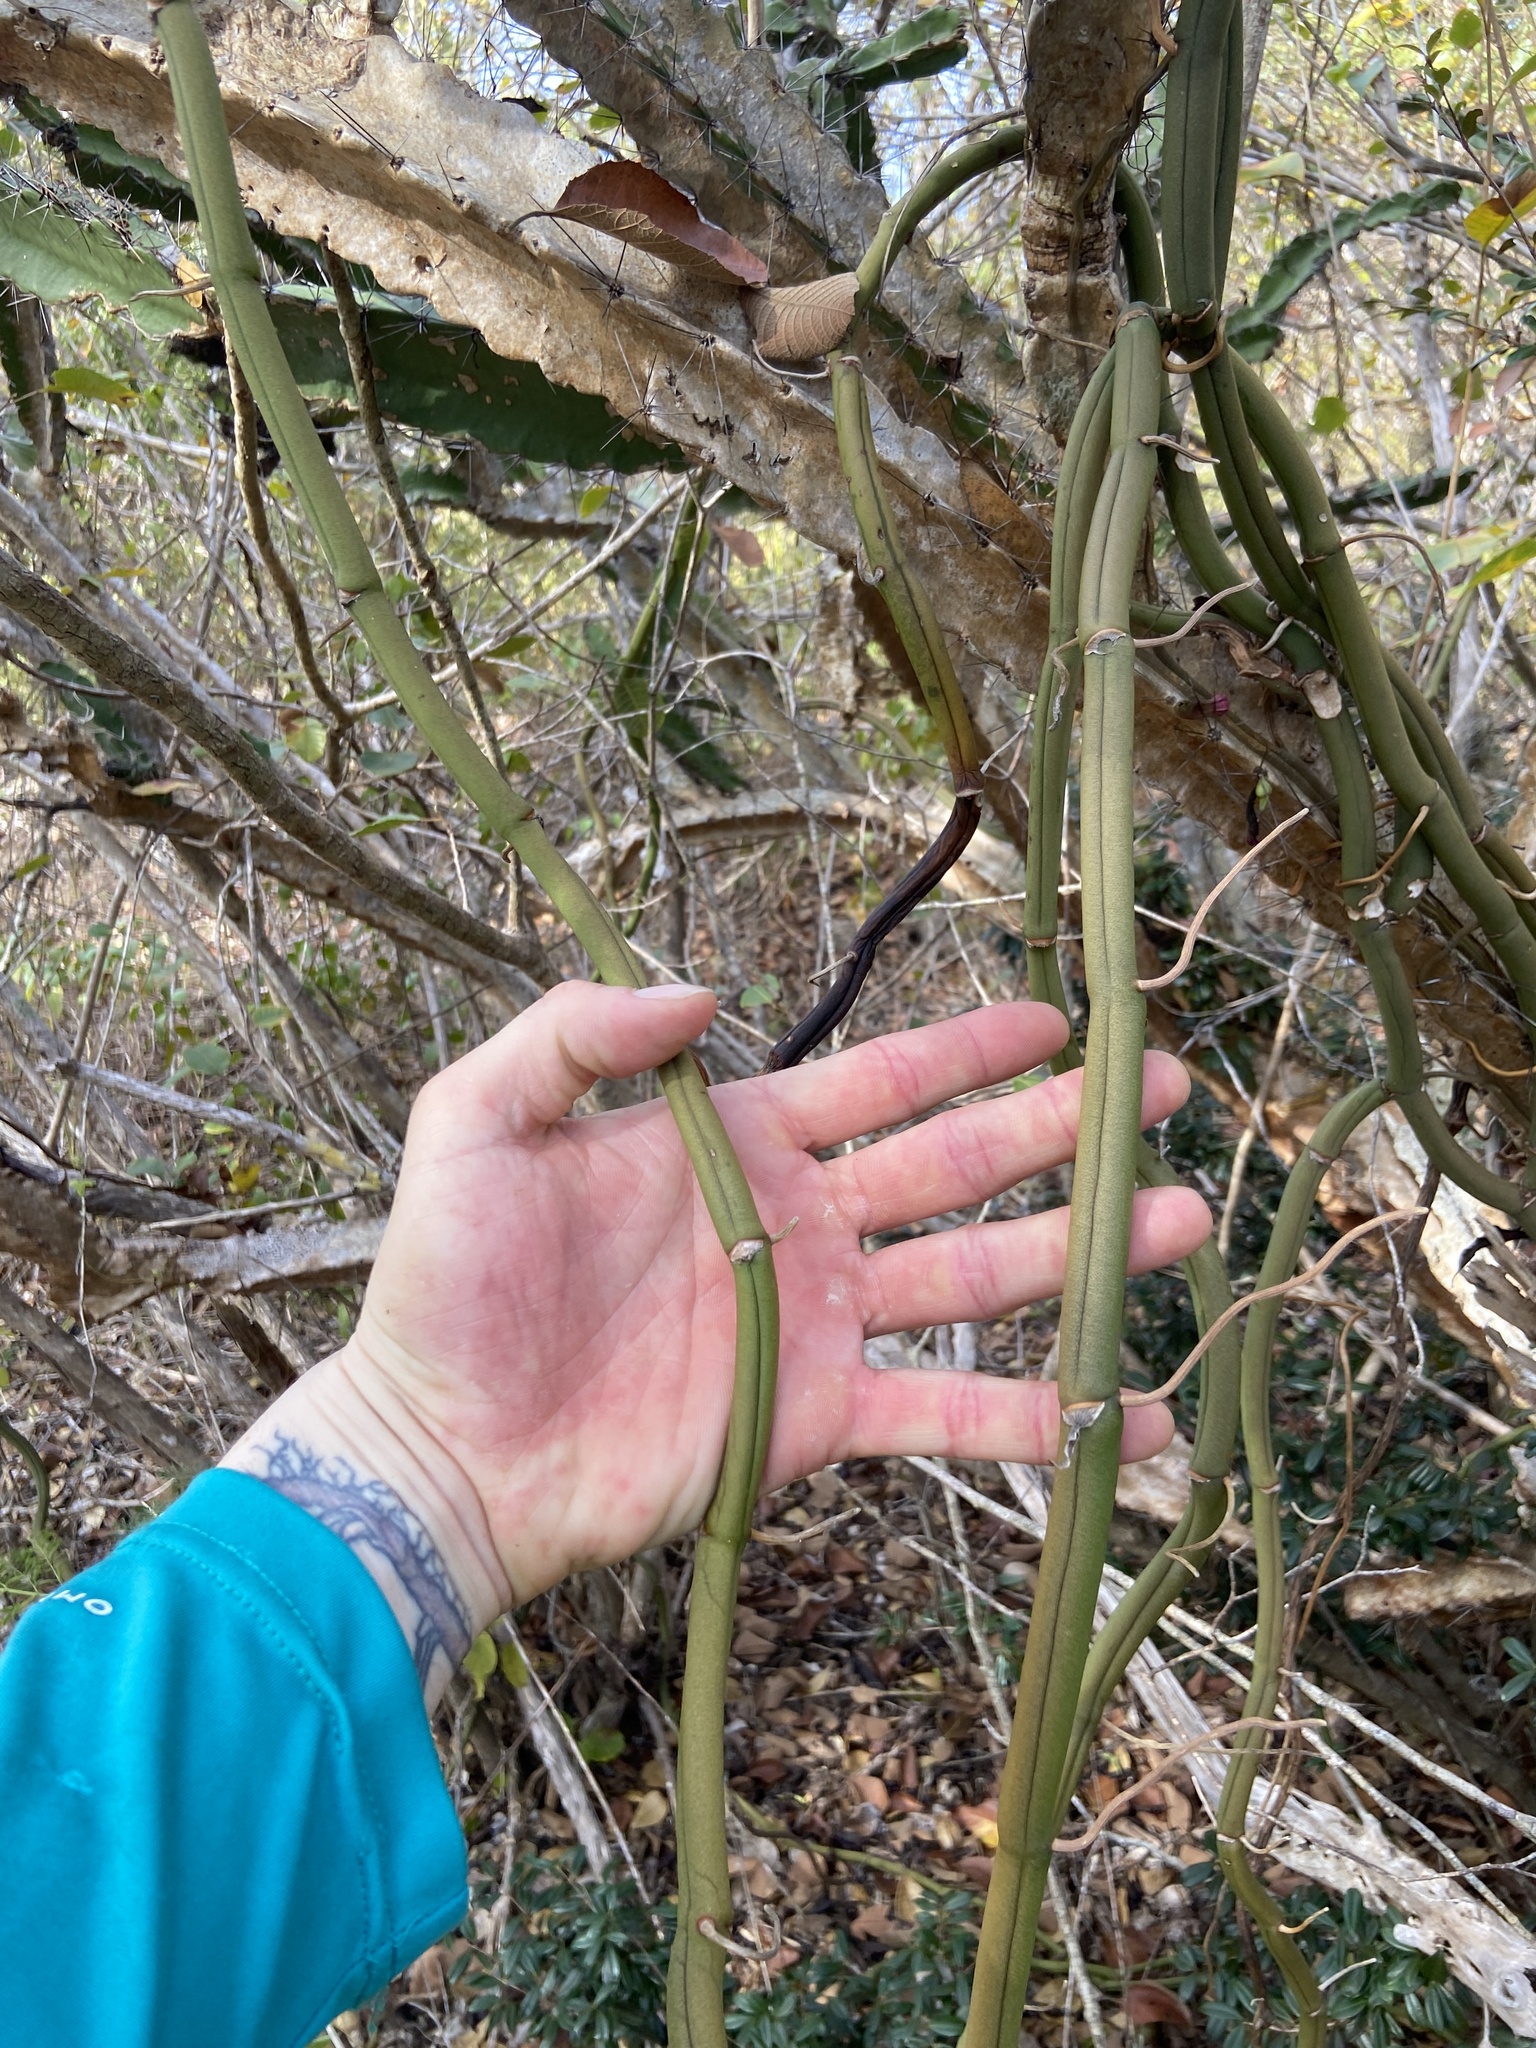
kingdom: Plantae
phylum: Tracheophyta
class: Liliopsida
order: Asparagales
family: Orchidaceae
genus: Vanilla
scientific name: Vanilla claviculata
